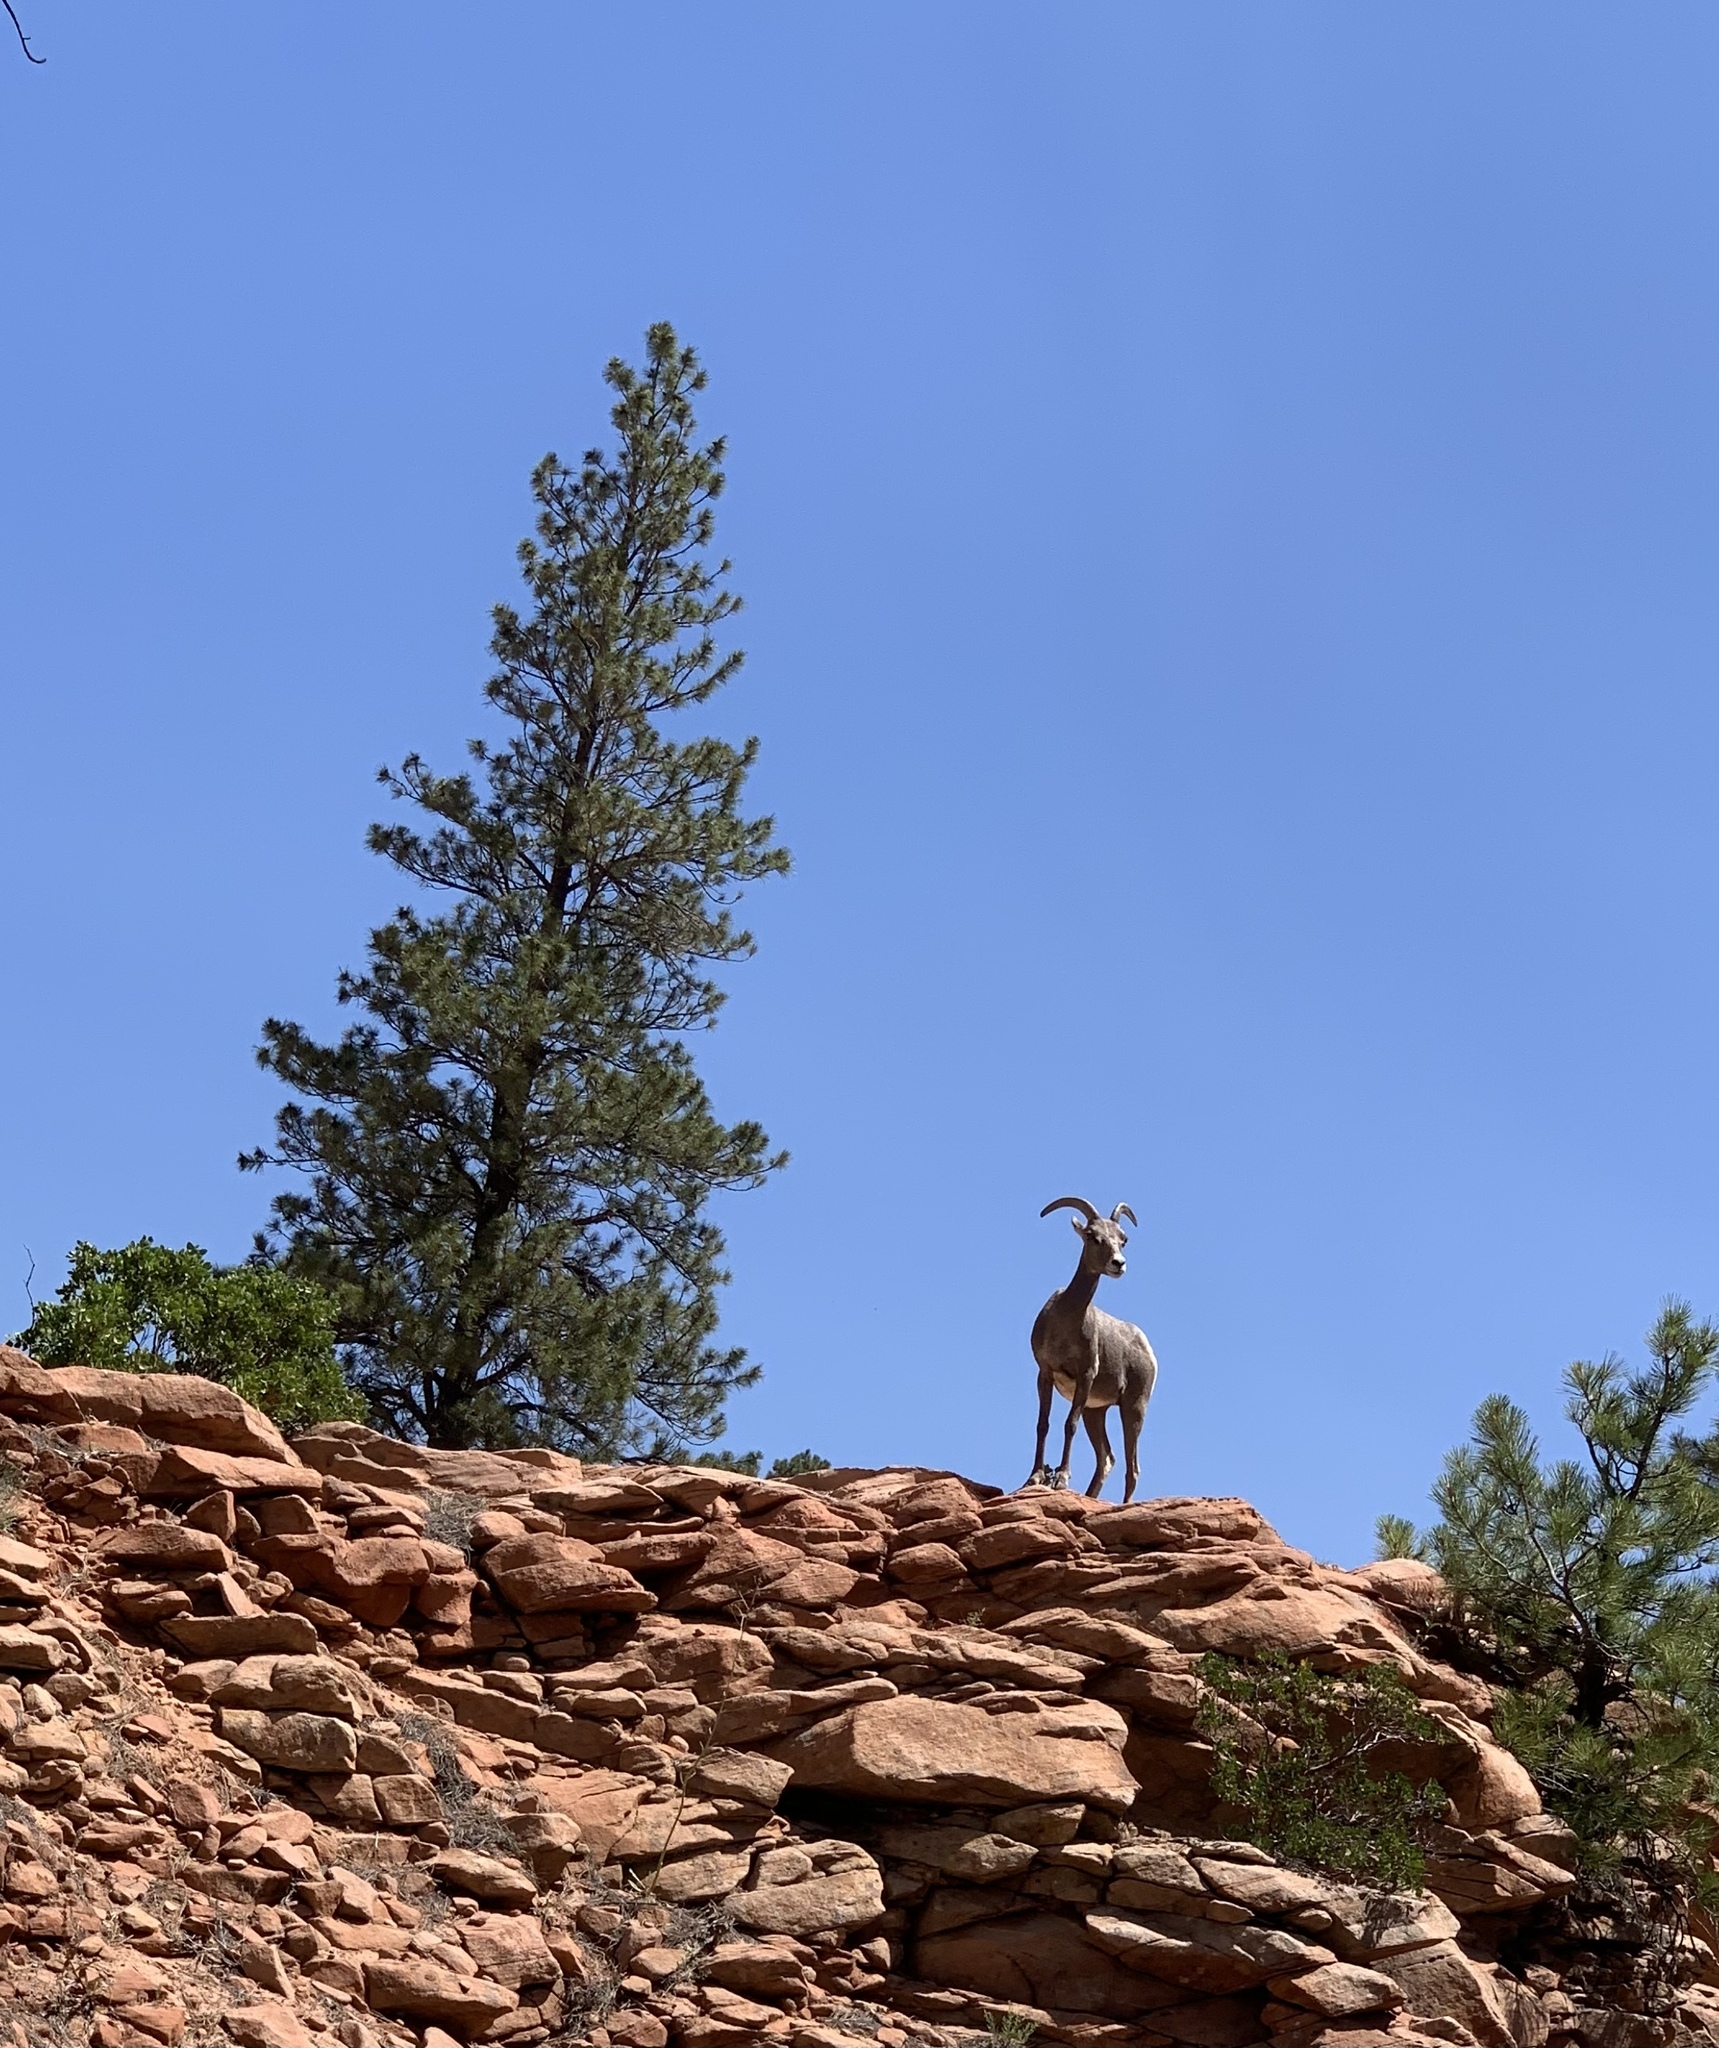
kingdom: Animalia
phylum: Chordata
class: Mammalia
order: Artiodactyla
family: Bovidae
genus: Ovis
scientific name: Ovis canadensis
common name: Bighorn sheep
